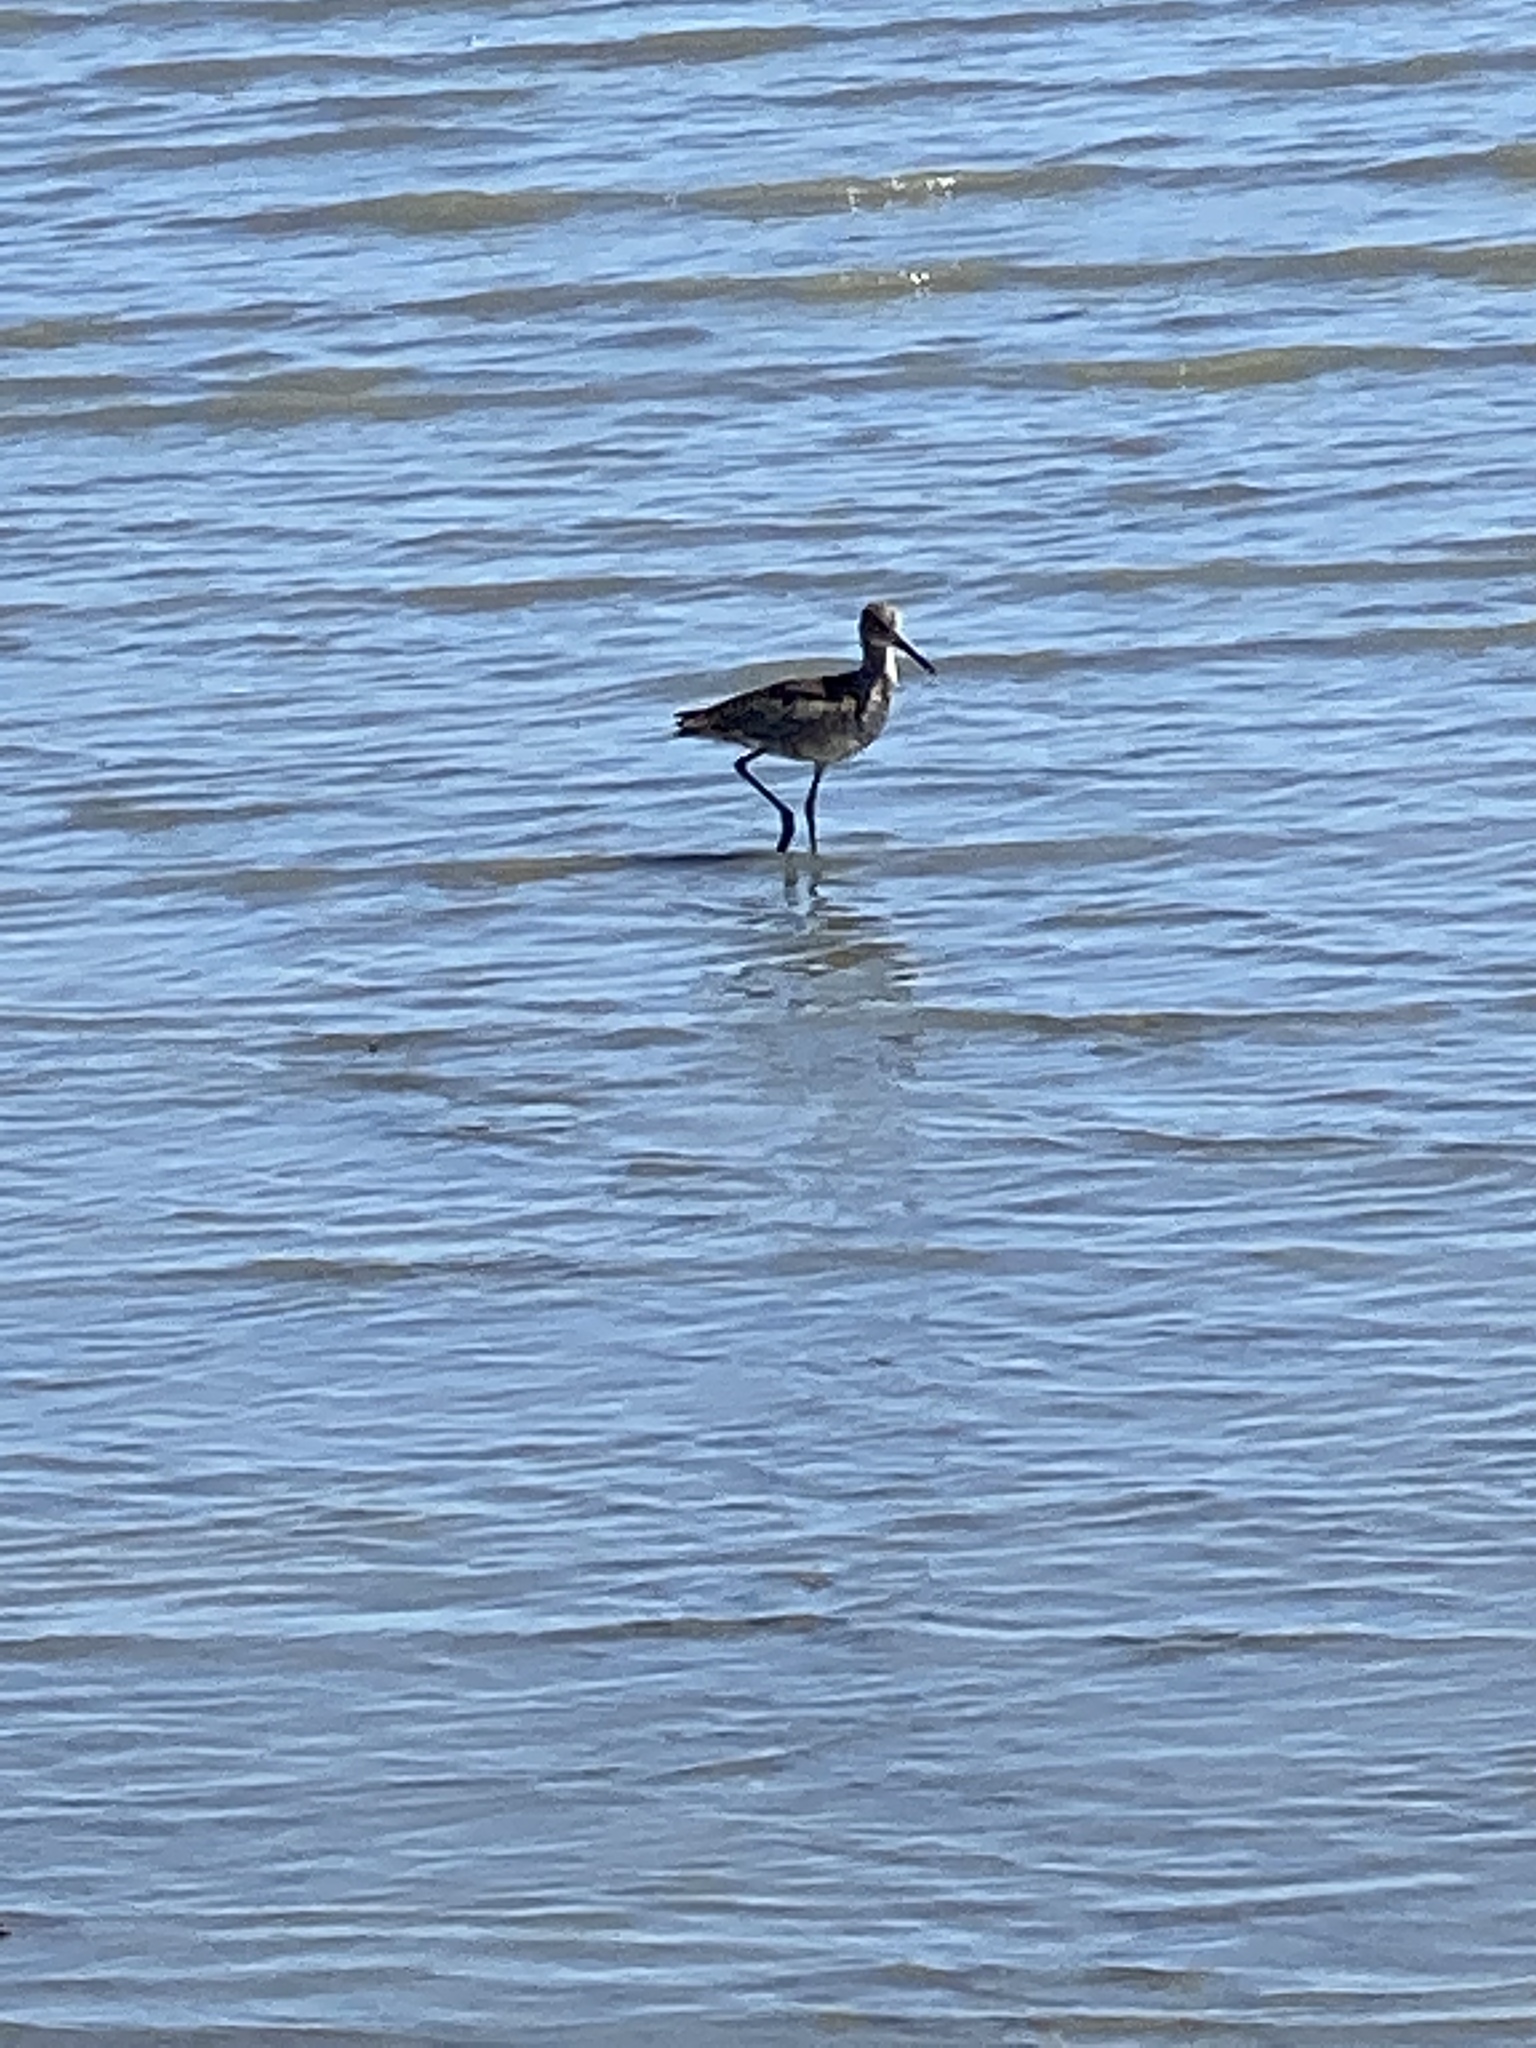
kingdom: Animalia
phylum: Chordata
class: Aves
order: Charadriiformes
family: Scolopacidae
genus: Tringa
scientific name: Tringa semipalmata
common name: Willet
